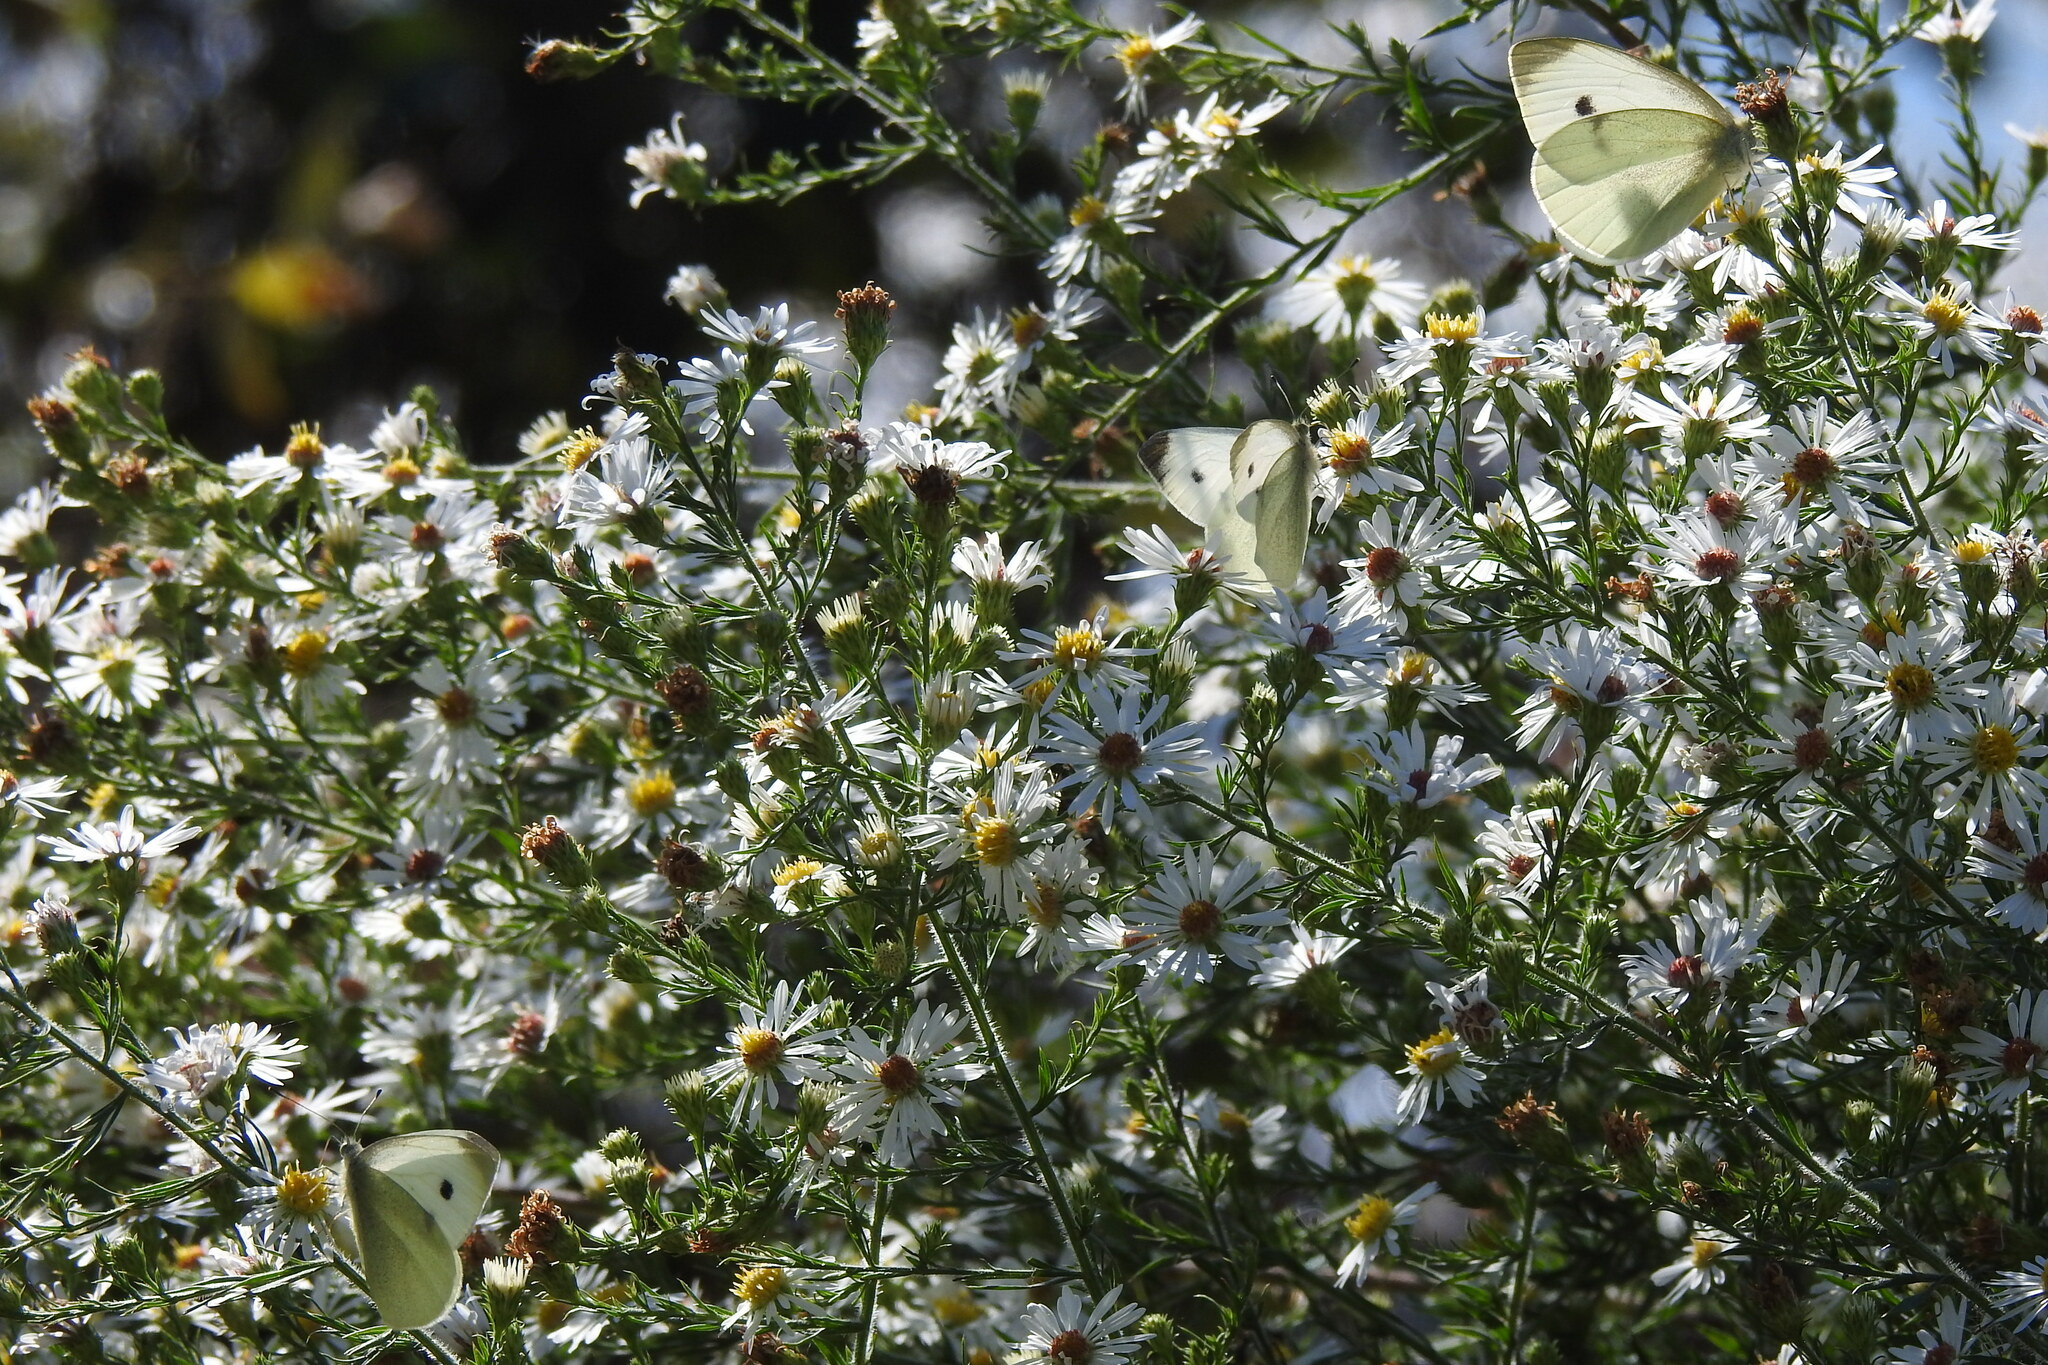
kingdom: Animalia
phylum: Arthropoda
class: Insecta
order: Lepidoptera
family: Pieridae
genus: Pieris
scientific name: Pieris rapae
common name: Small white
